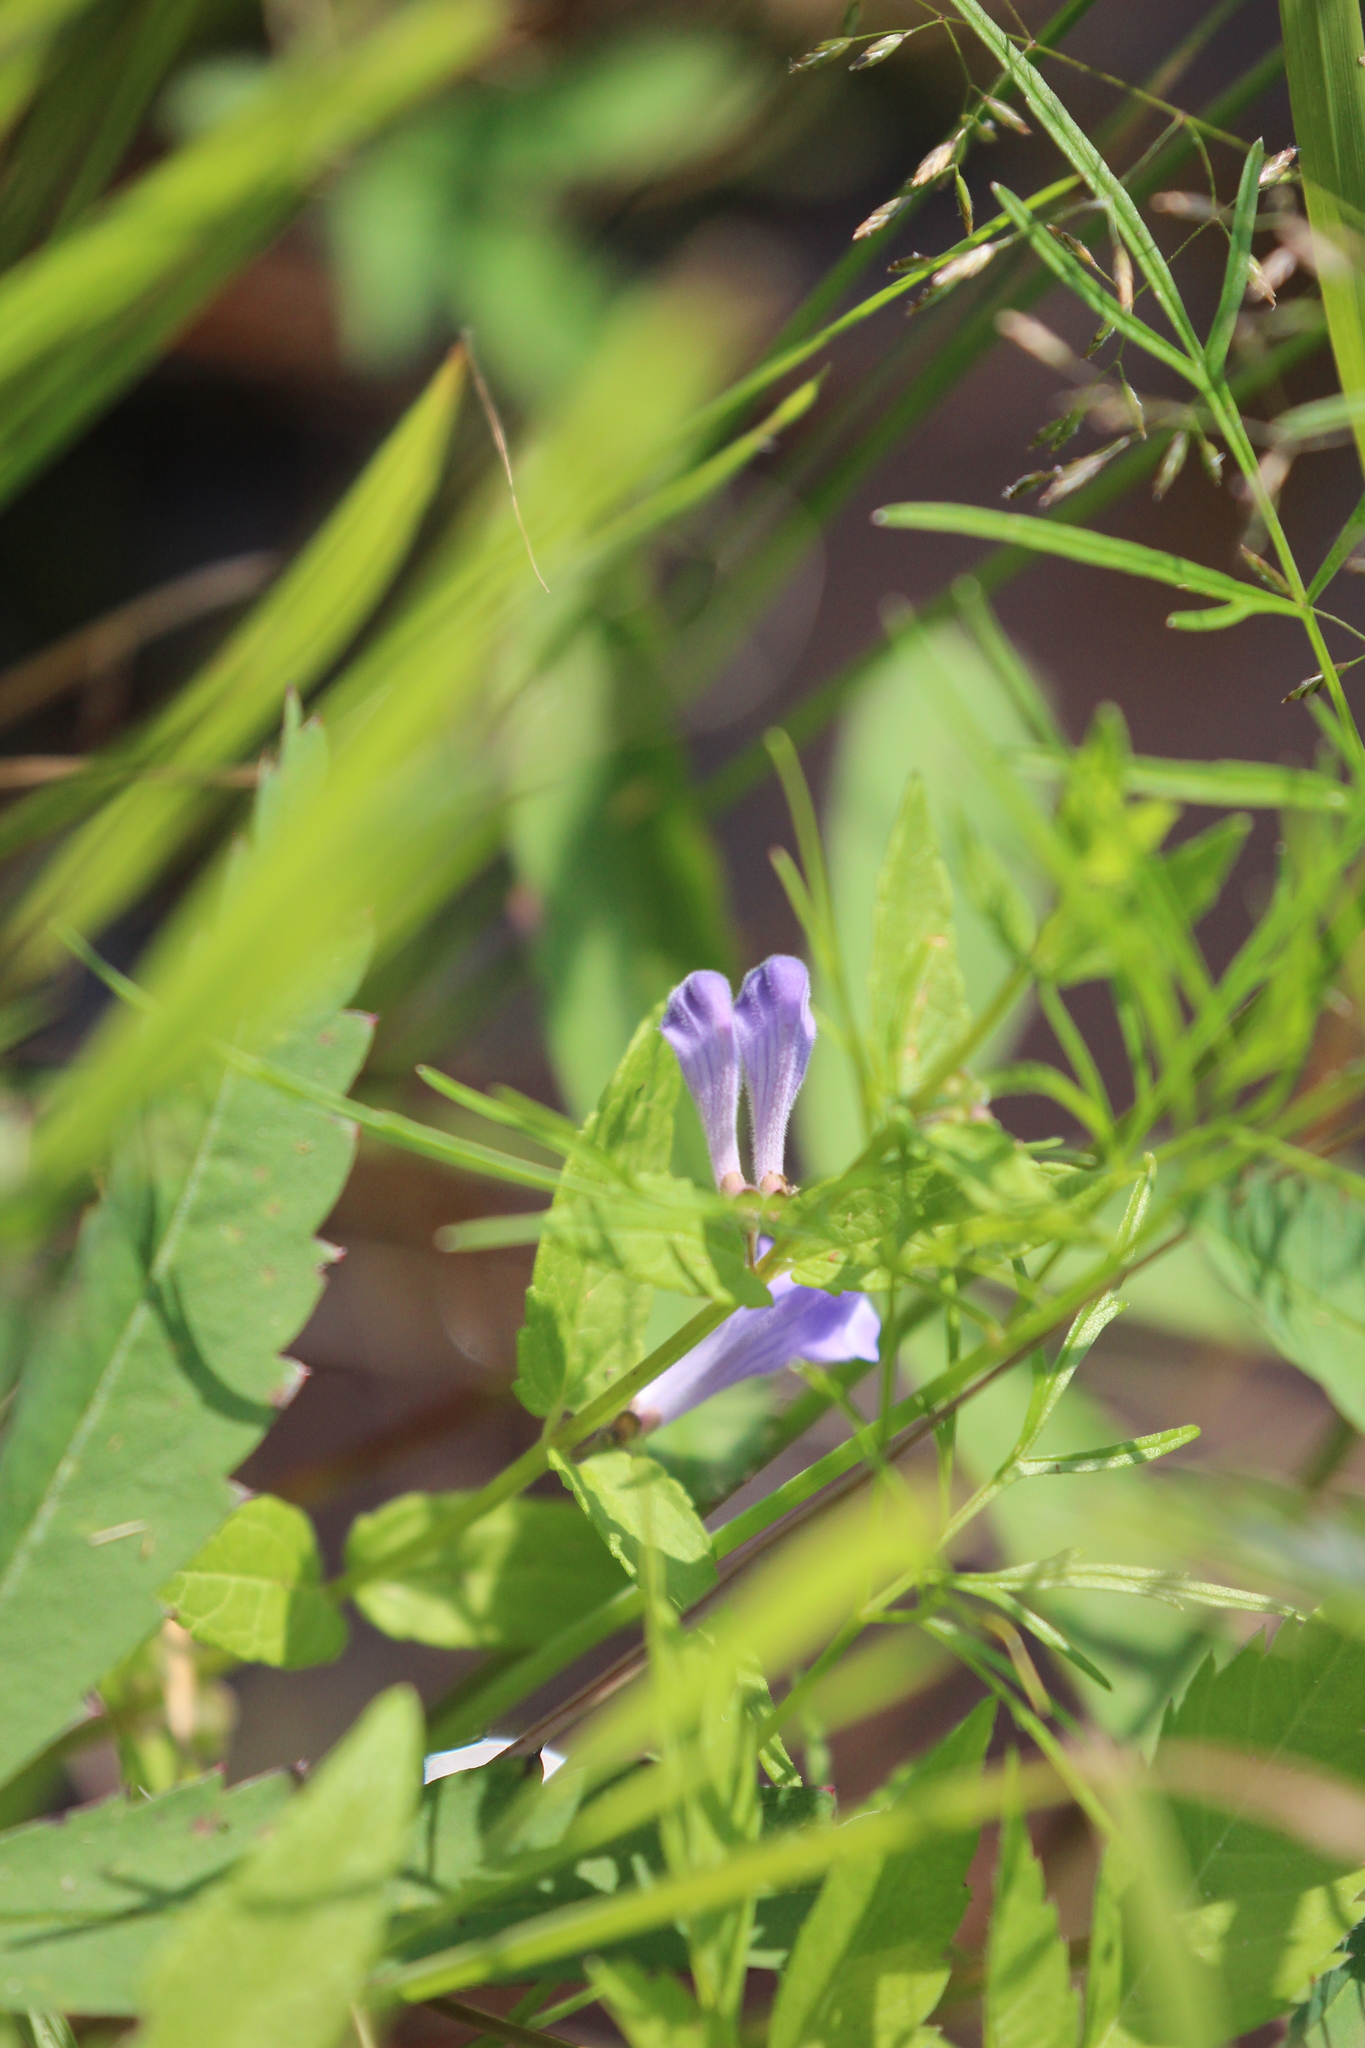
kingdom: Plantae
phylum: Tracheophyta
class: Magnoliopsida
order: Lamiales
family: Lamiaceae
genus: Scutellaria
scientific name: Scutellaria galericulata
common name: Skullcap
